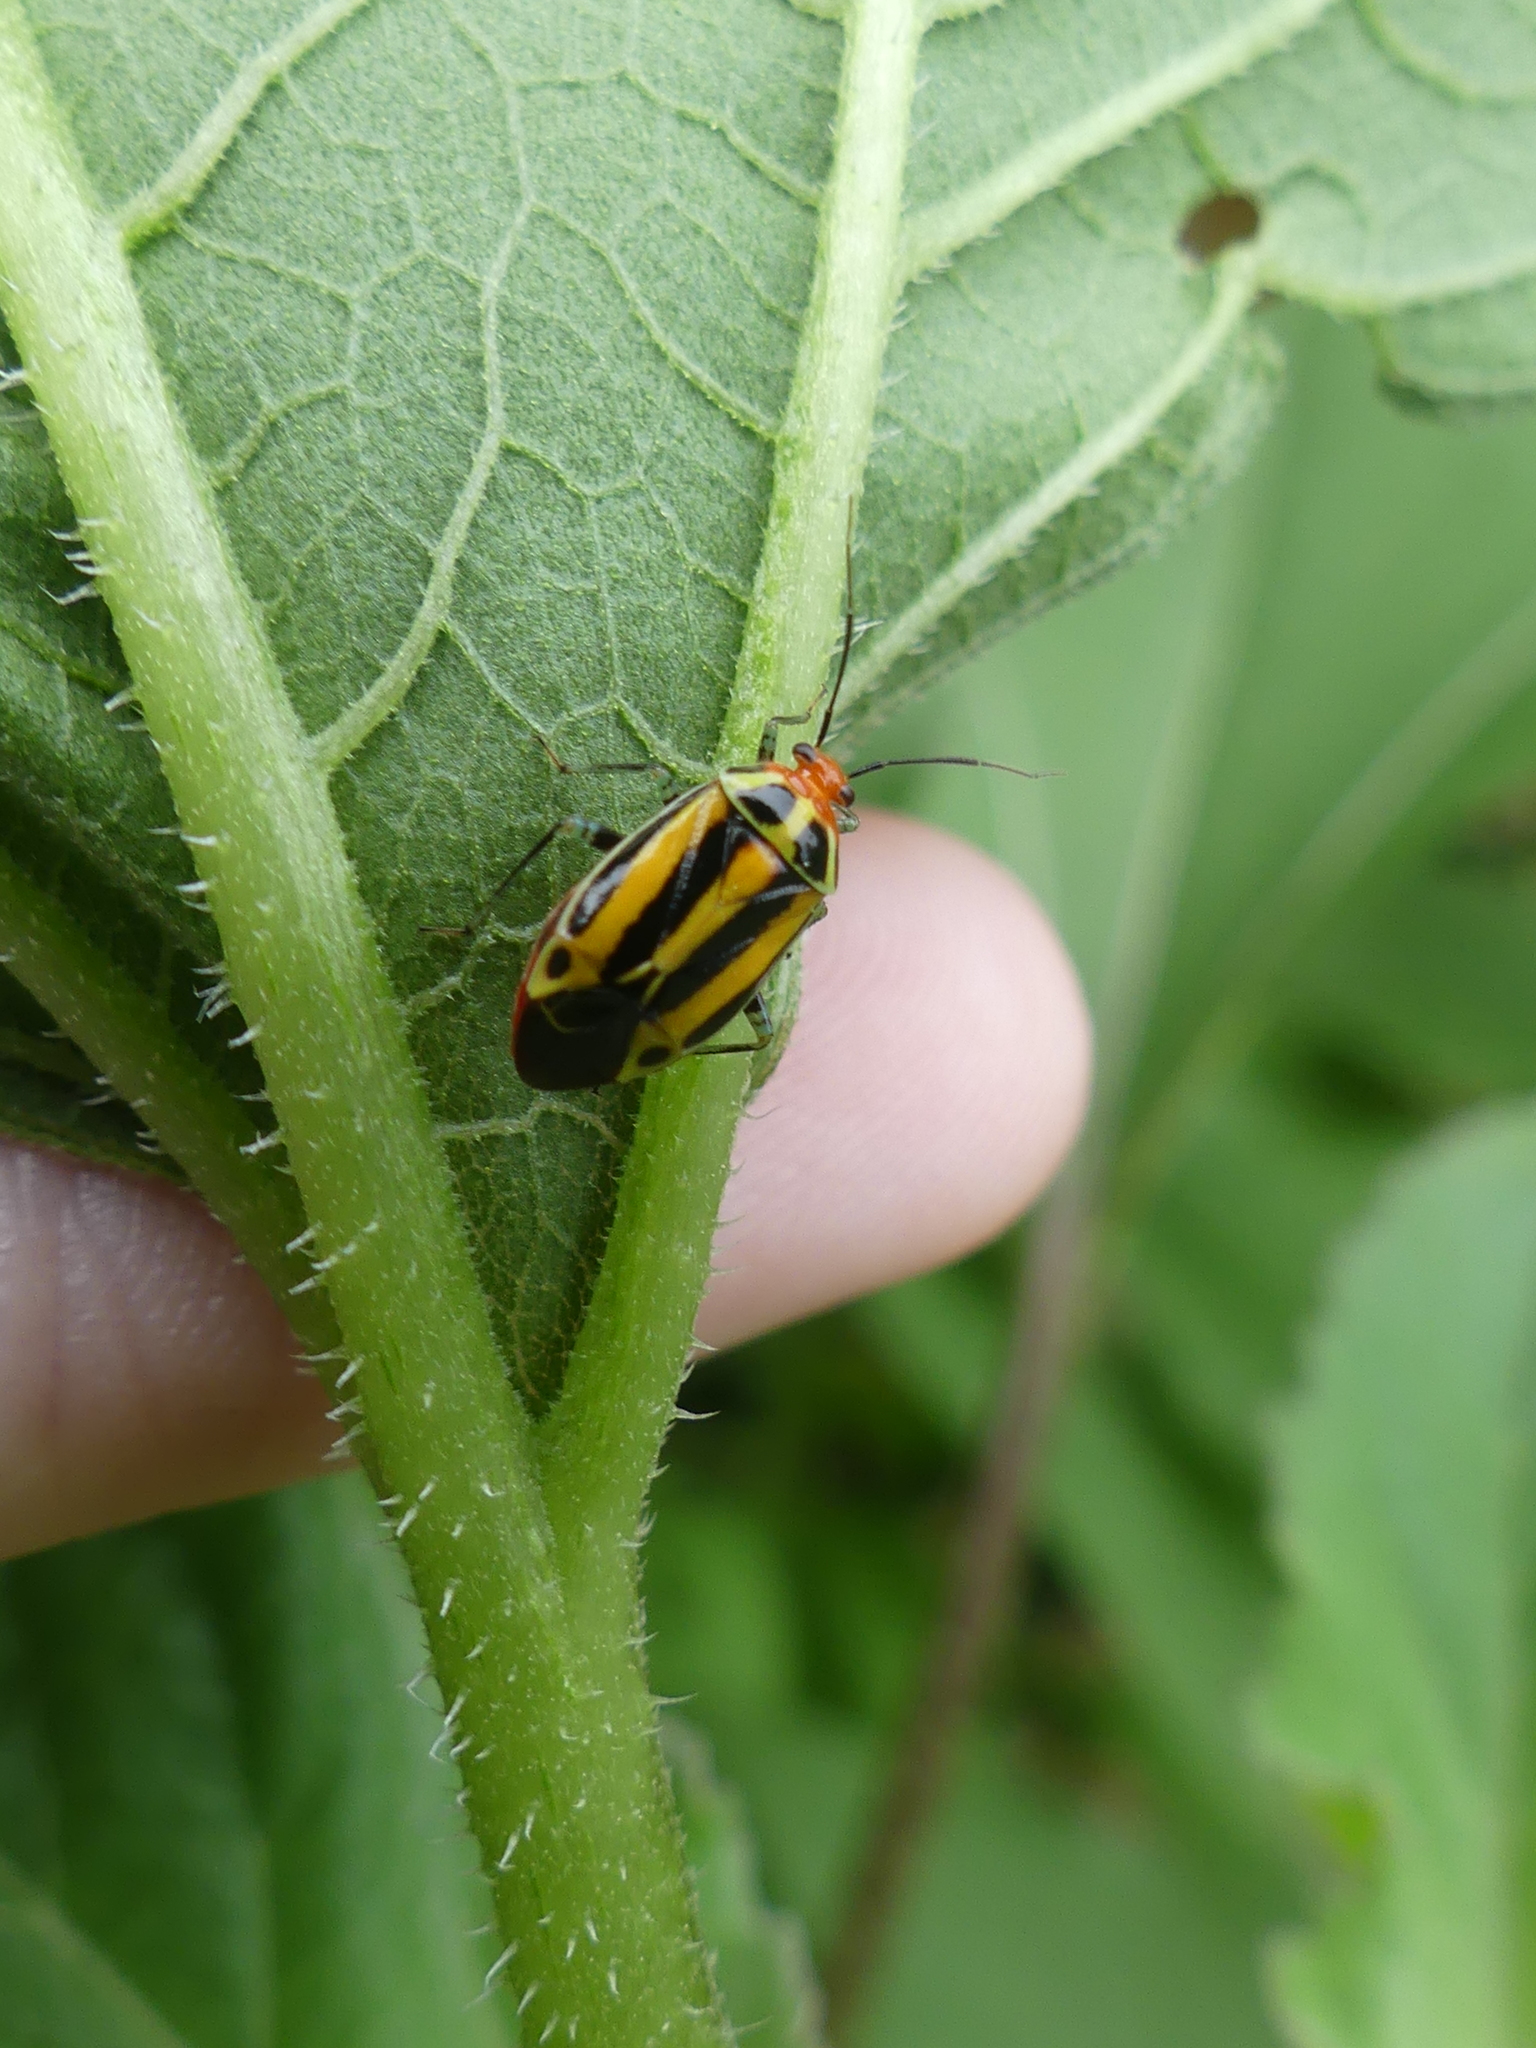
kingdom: Animalia
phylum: Arthropoda
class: Insecta
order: Hemiptera
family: Miridae
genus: Poecilocapsus
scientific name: Poecilocapsus lineatus
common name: Four-lined plant bug
